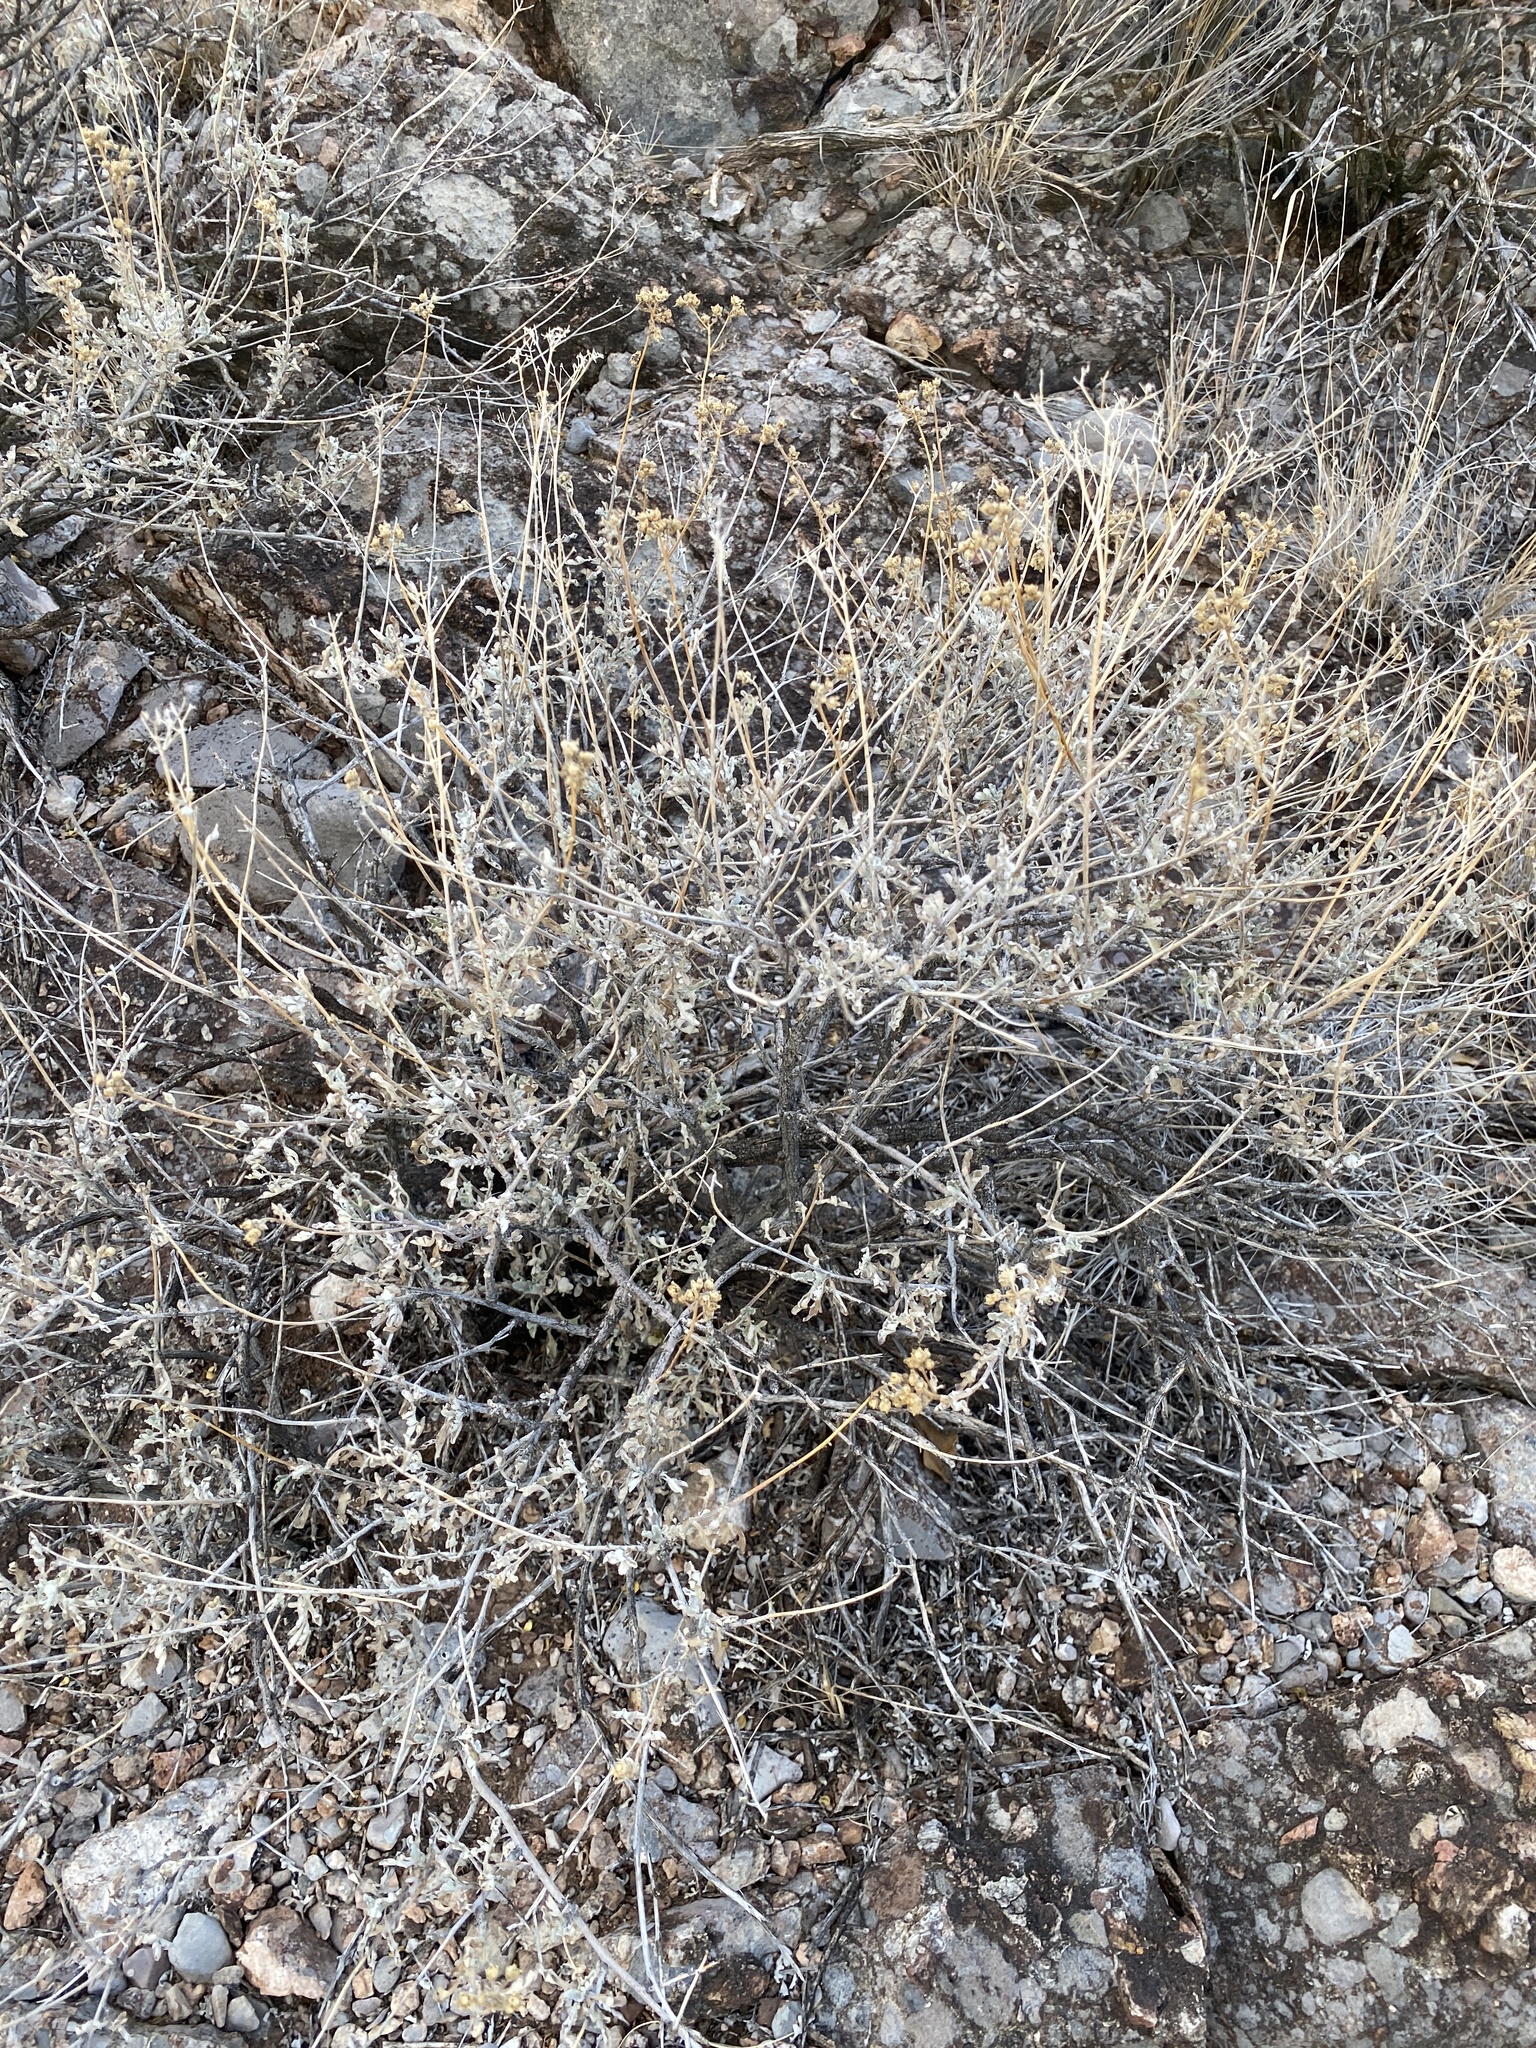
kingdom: Plantae
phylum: Tracheophyta
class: Magnoliopsida
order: Asterales
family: Asteraceae
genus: Parthenium
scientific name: Parthenium incanum
